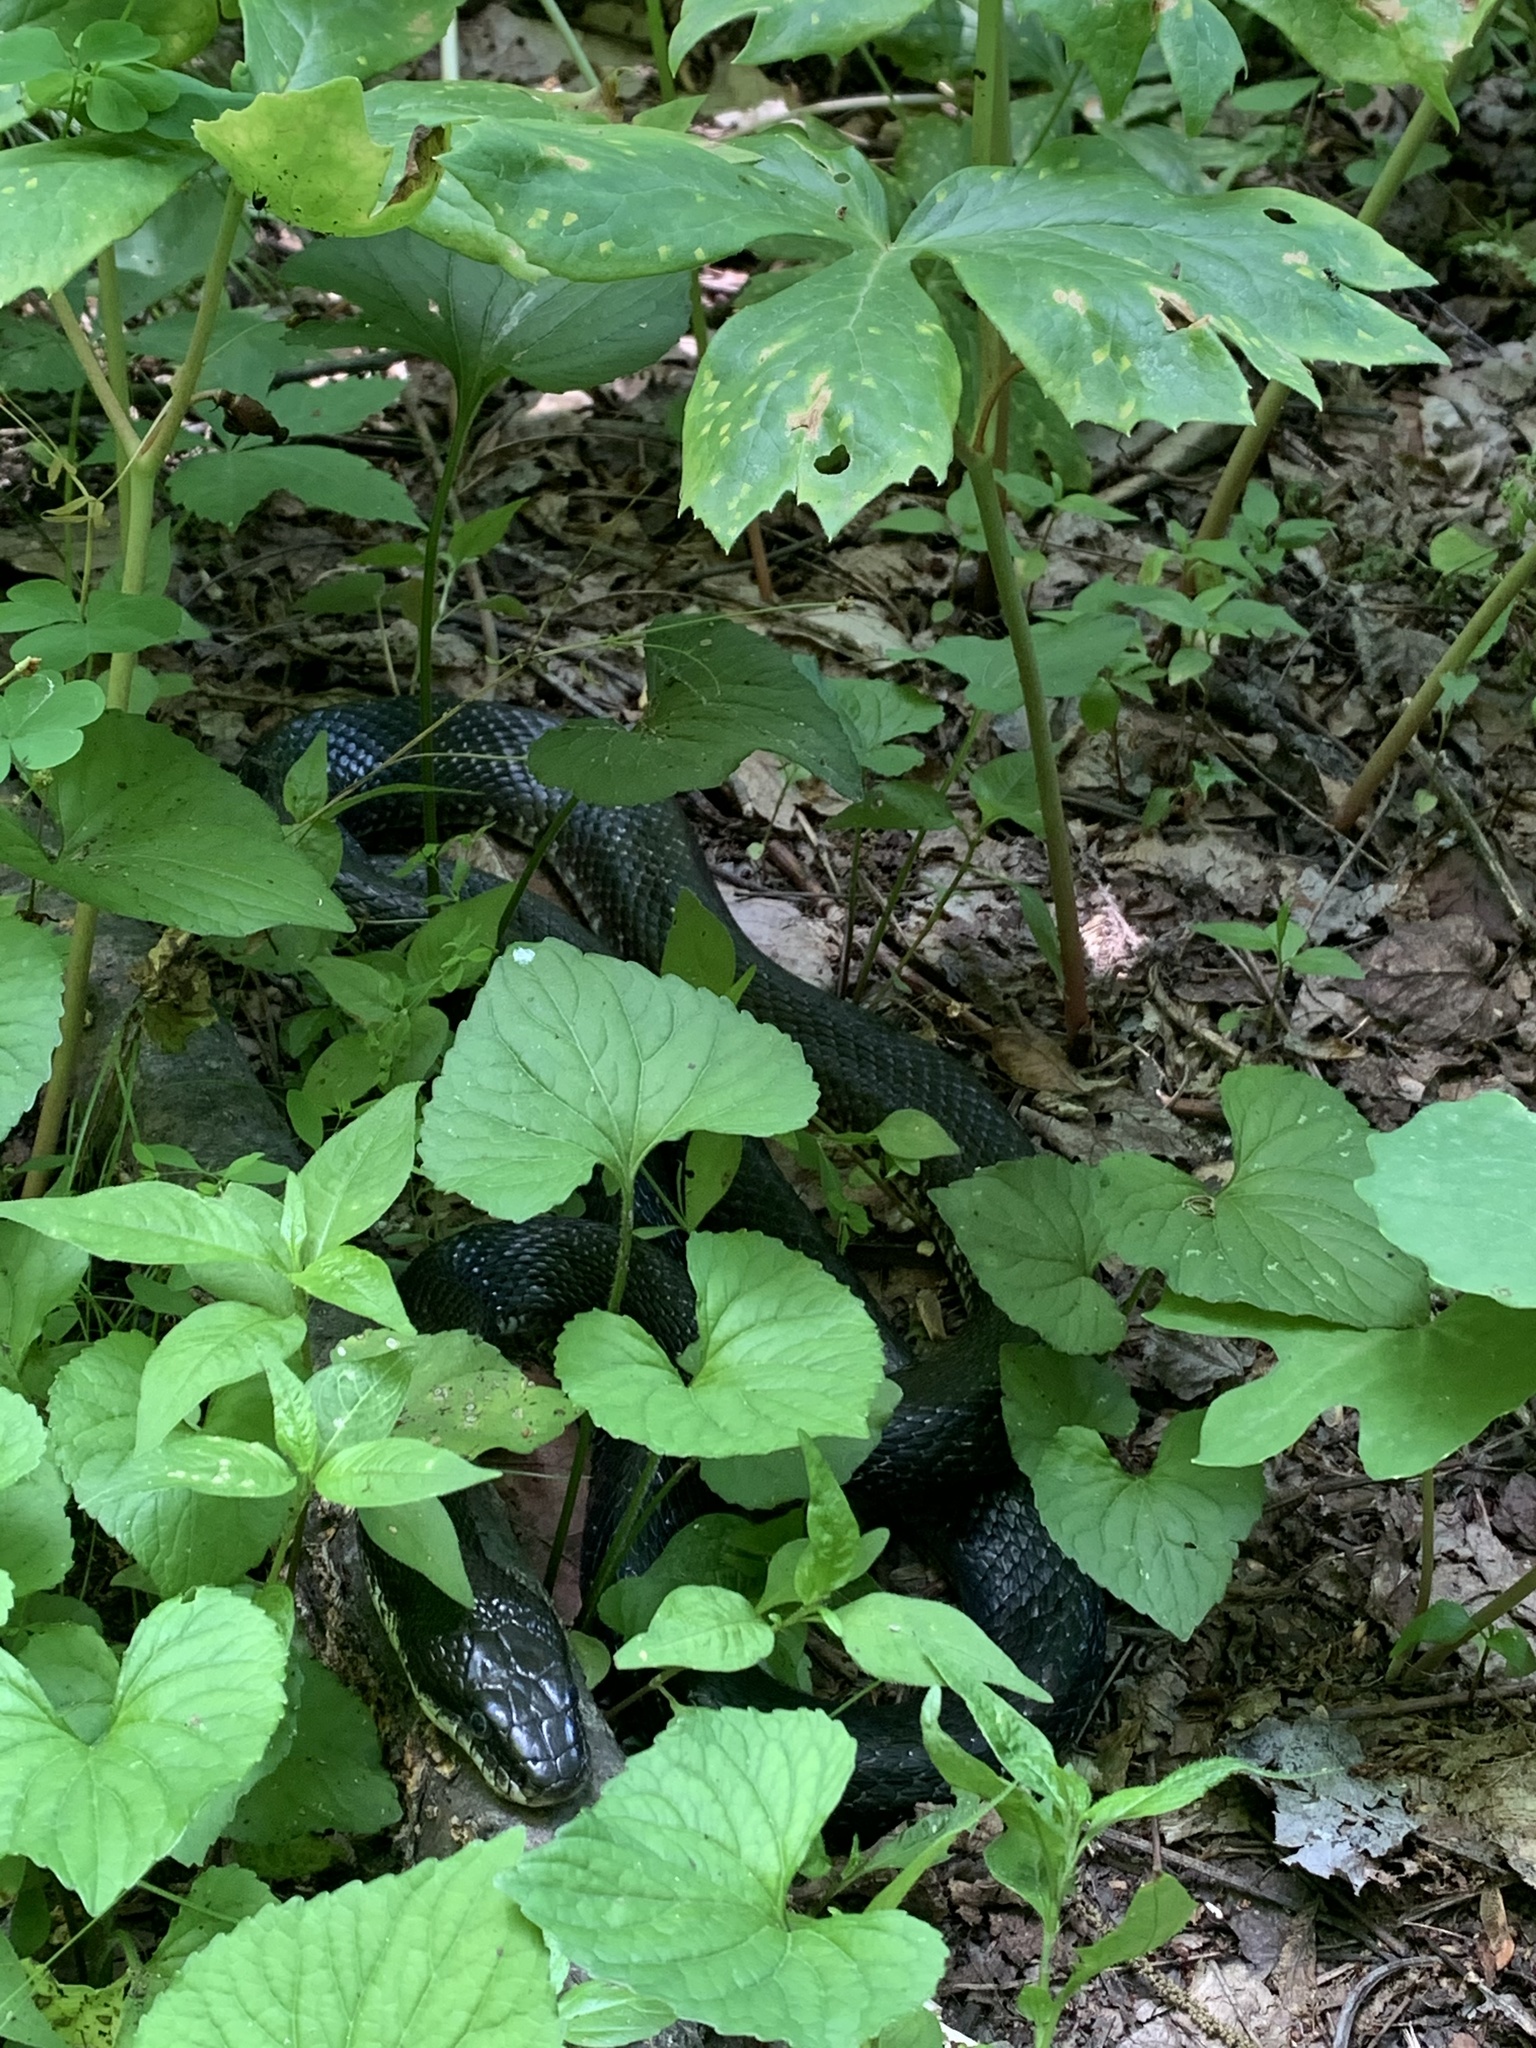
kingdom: Animalia
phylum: Chordata
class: Squamata
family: Colubridae
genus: Pantherophis
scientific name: Pantherophis alleghaniensis
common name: Eastern rat snake
